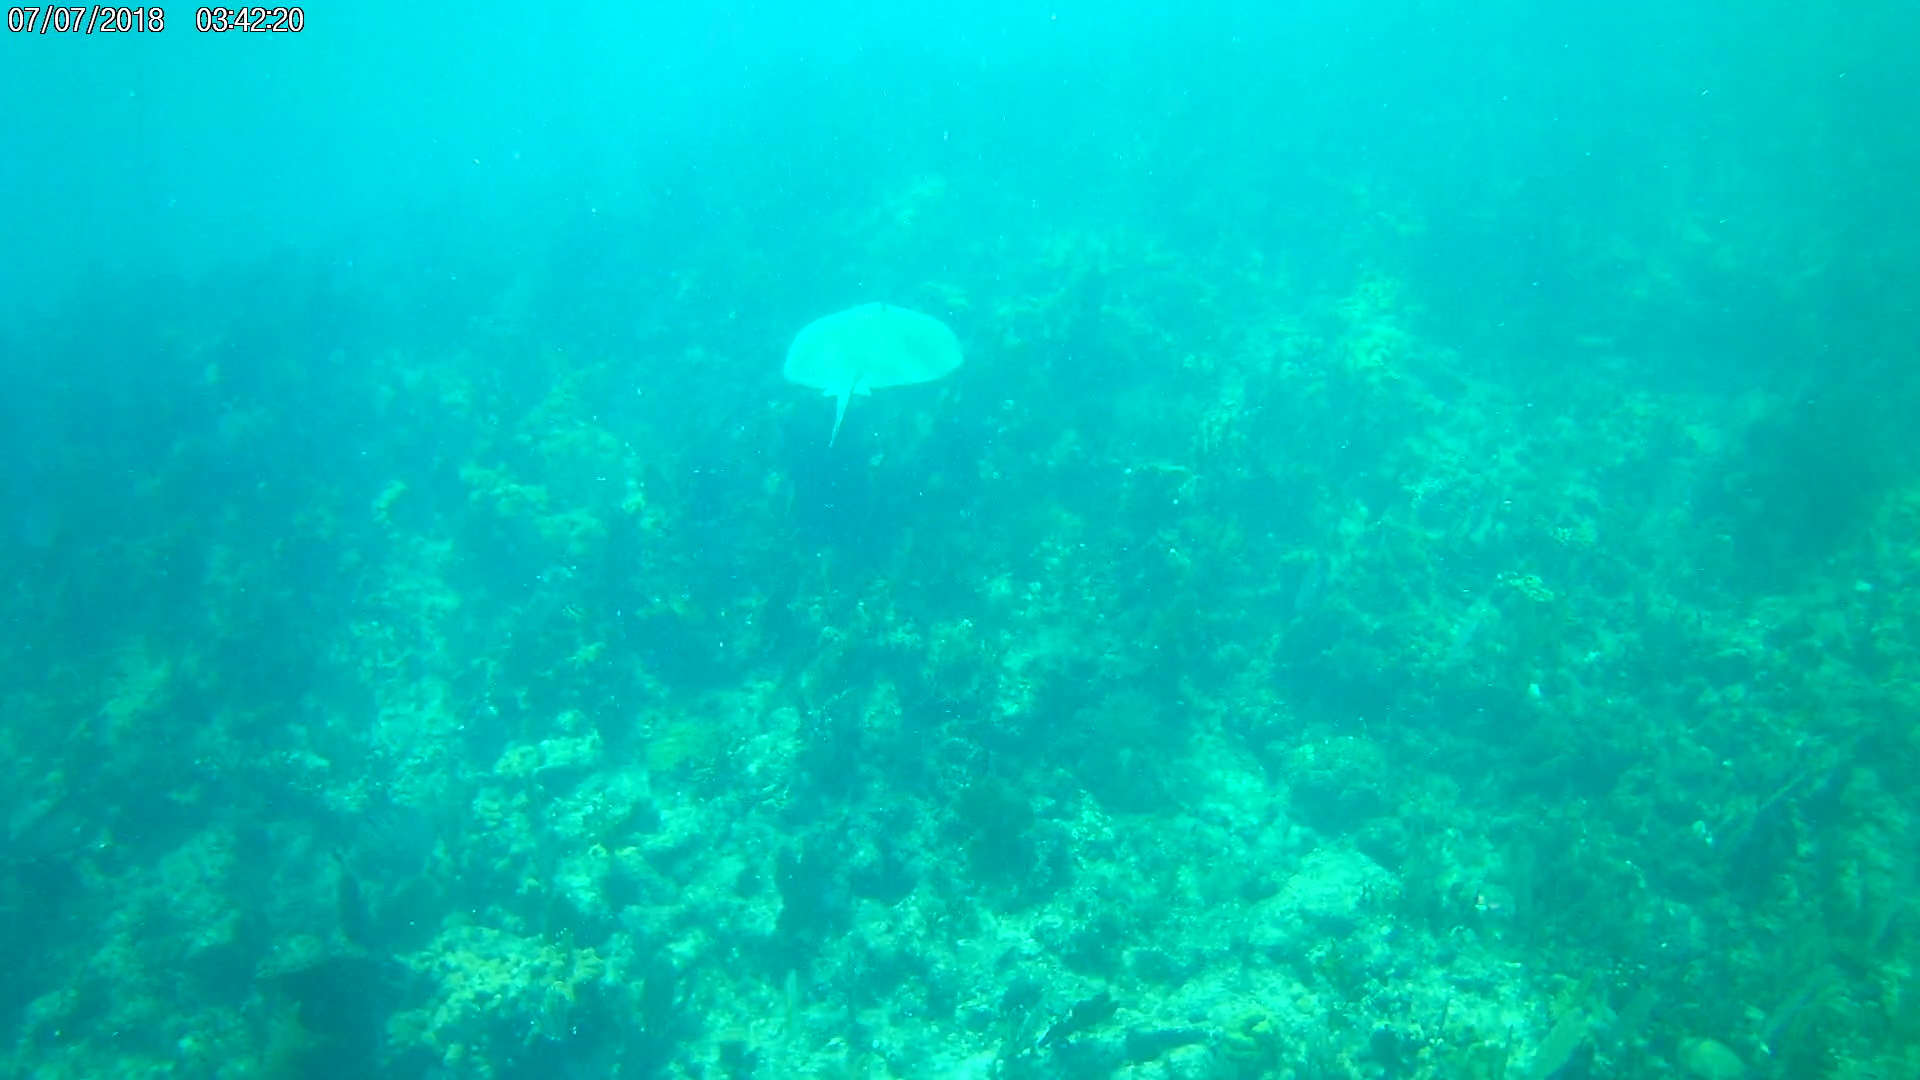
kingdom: Animalia
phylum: Chordata
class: Elasmobranchii
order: Myliobatiformes
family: Dasyatidae
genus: Hypanus
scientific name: Hypanus americanus
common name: Southern stingray
